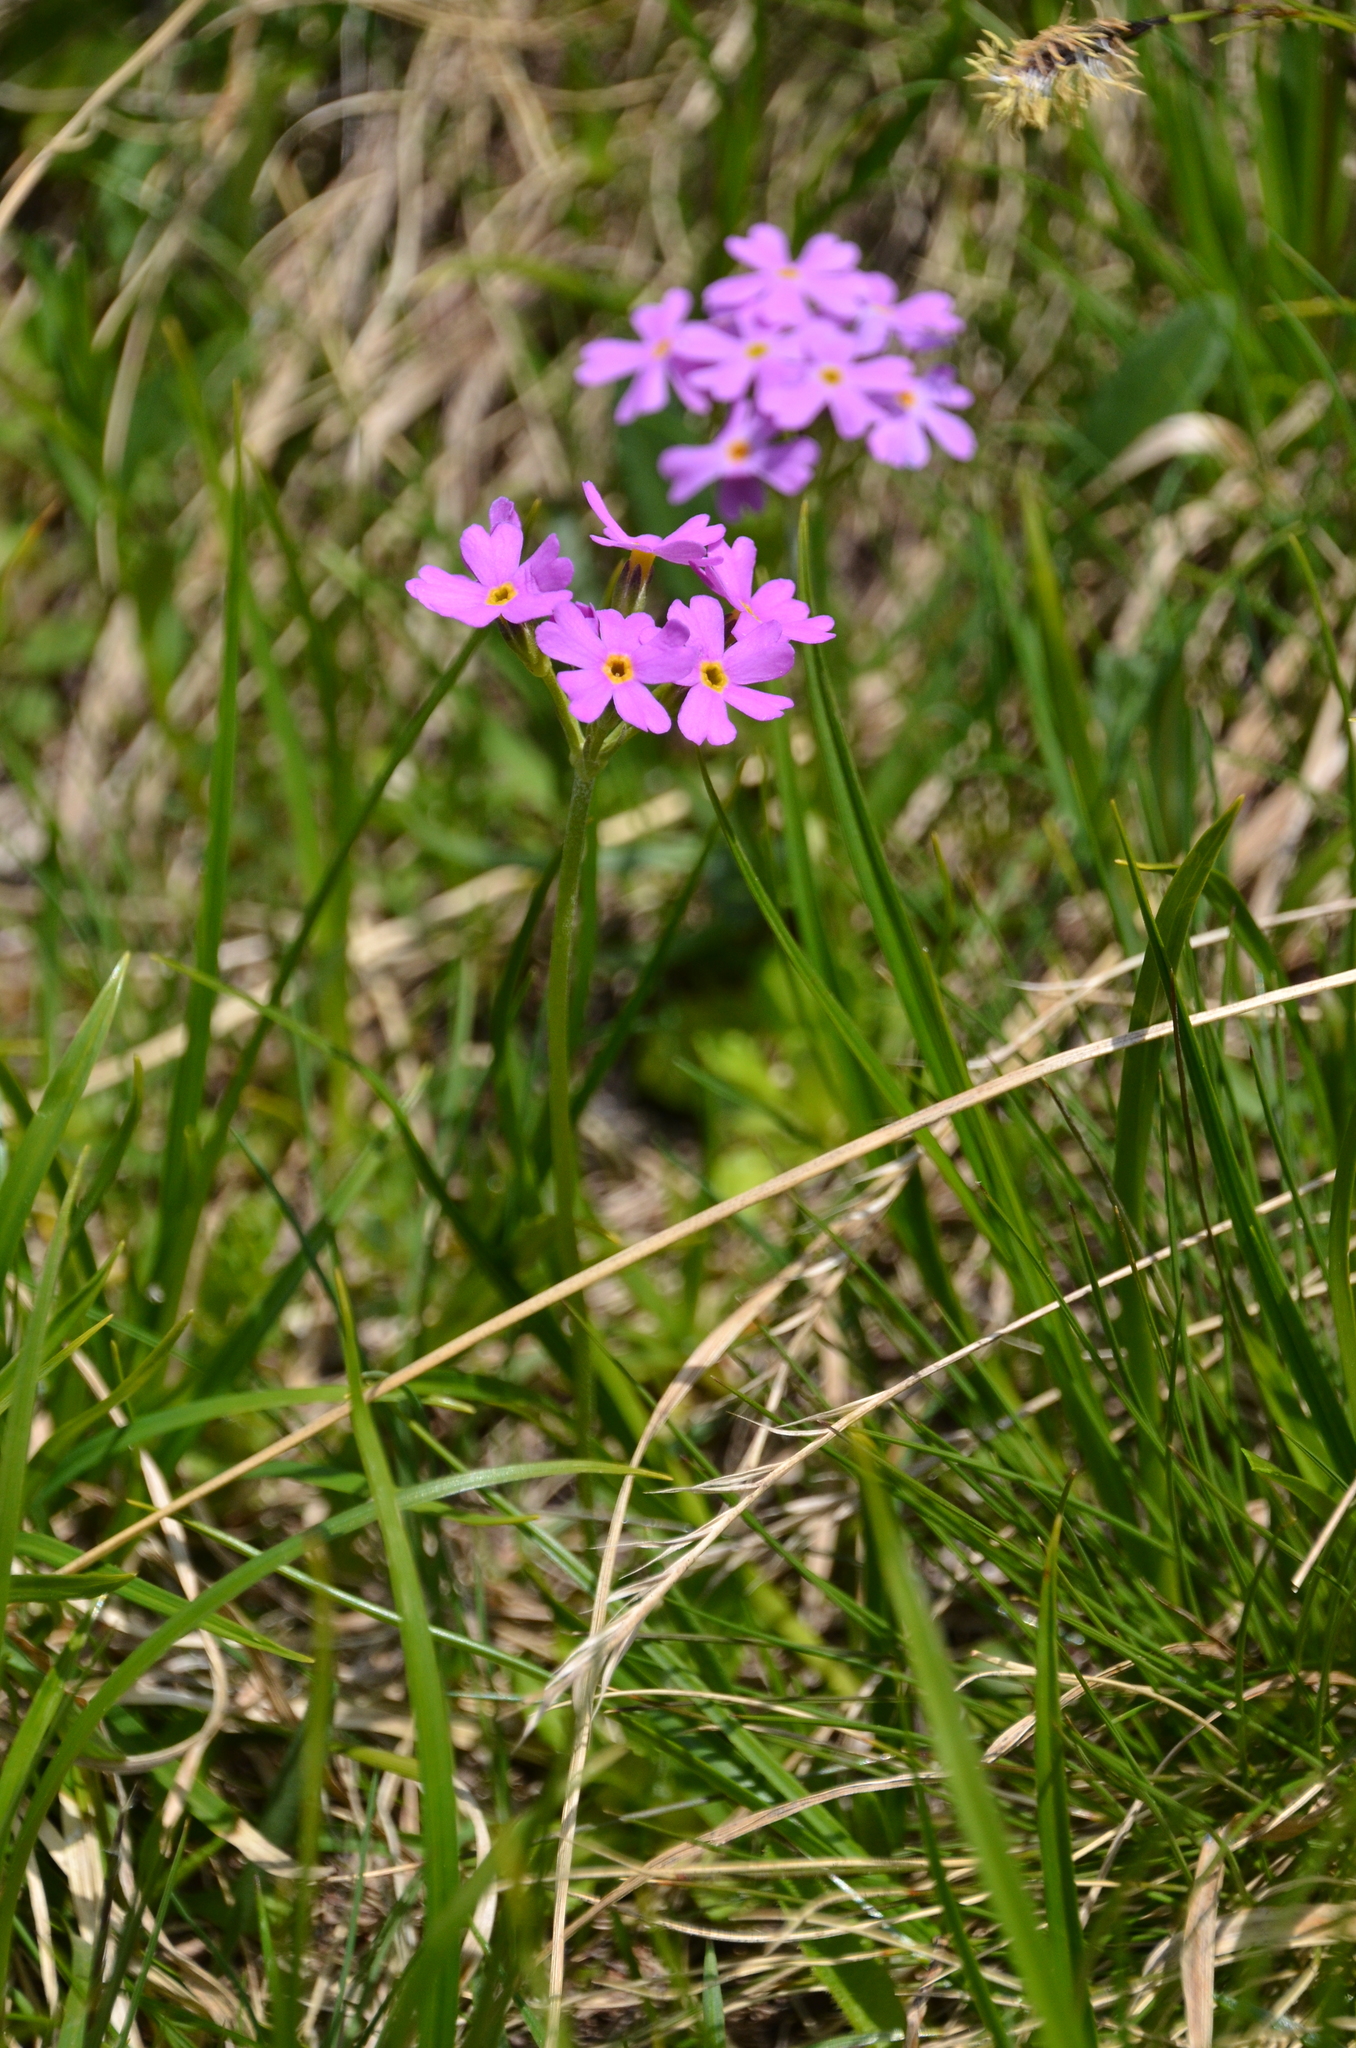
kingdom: Plantae
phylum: Tracheophyta
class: Magnoliopsida
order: Ericales
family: Primulaceae
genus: Primula
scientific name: Primula farinosa
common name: Bird's-eye primrose
